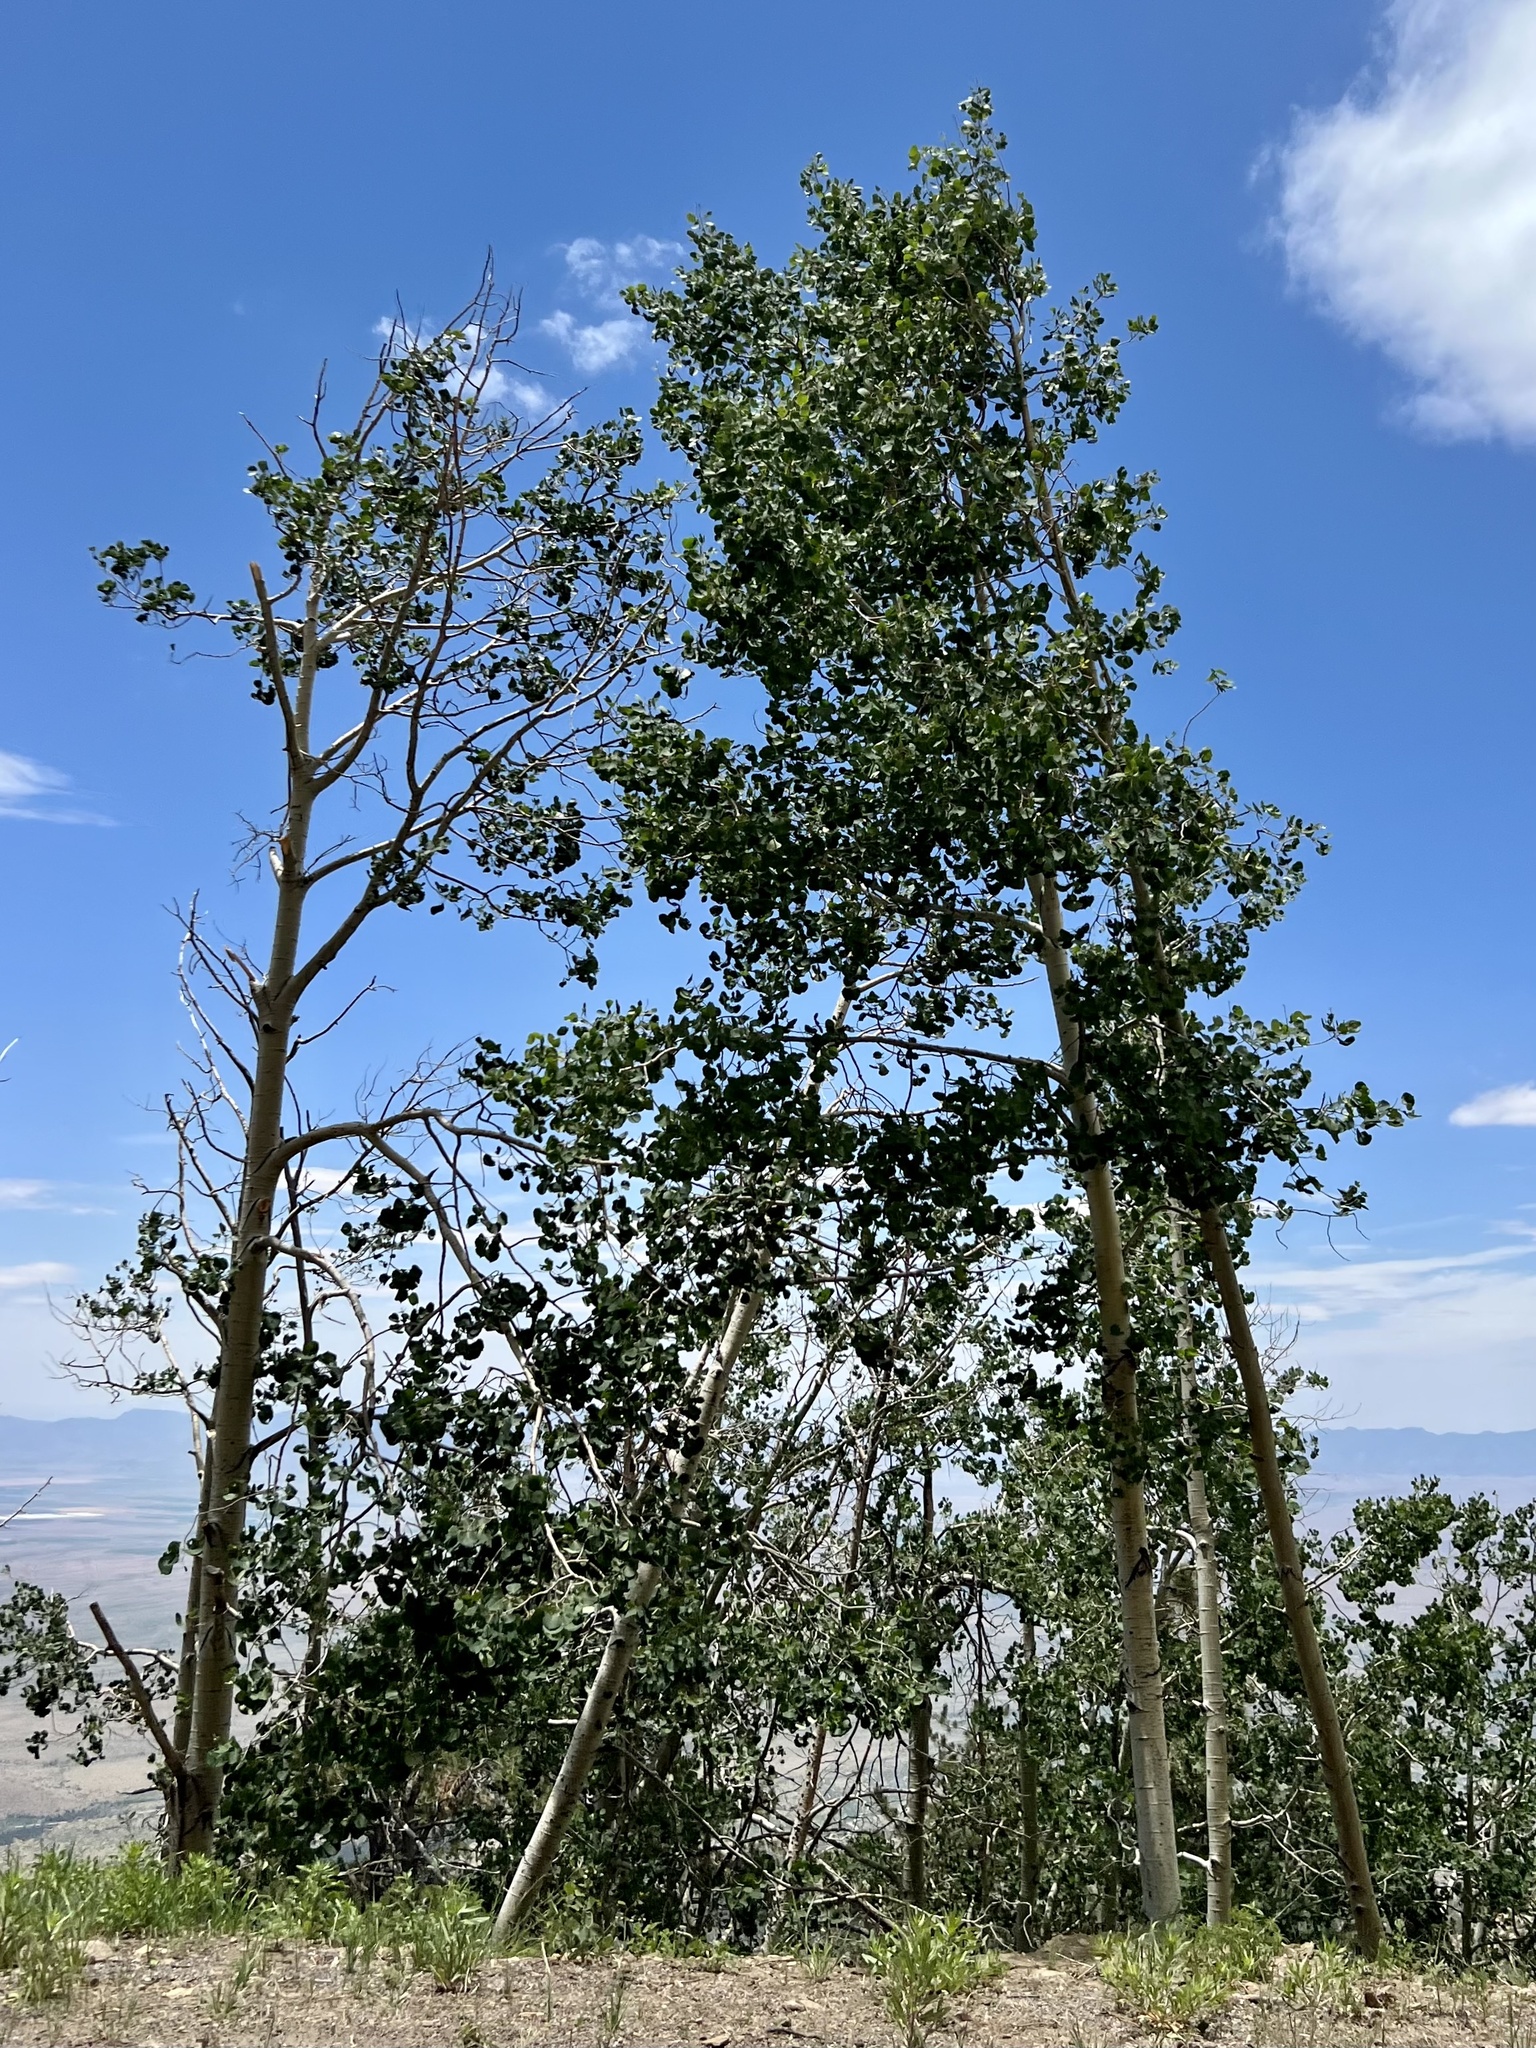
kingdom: Plantae
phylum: Tracheophyta
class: Magnoliopsida
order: Malpighiales
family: Salicaceae
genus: Populus
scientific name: Populus tremuloides
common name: Quaking aspen
